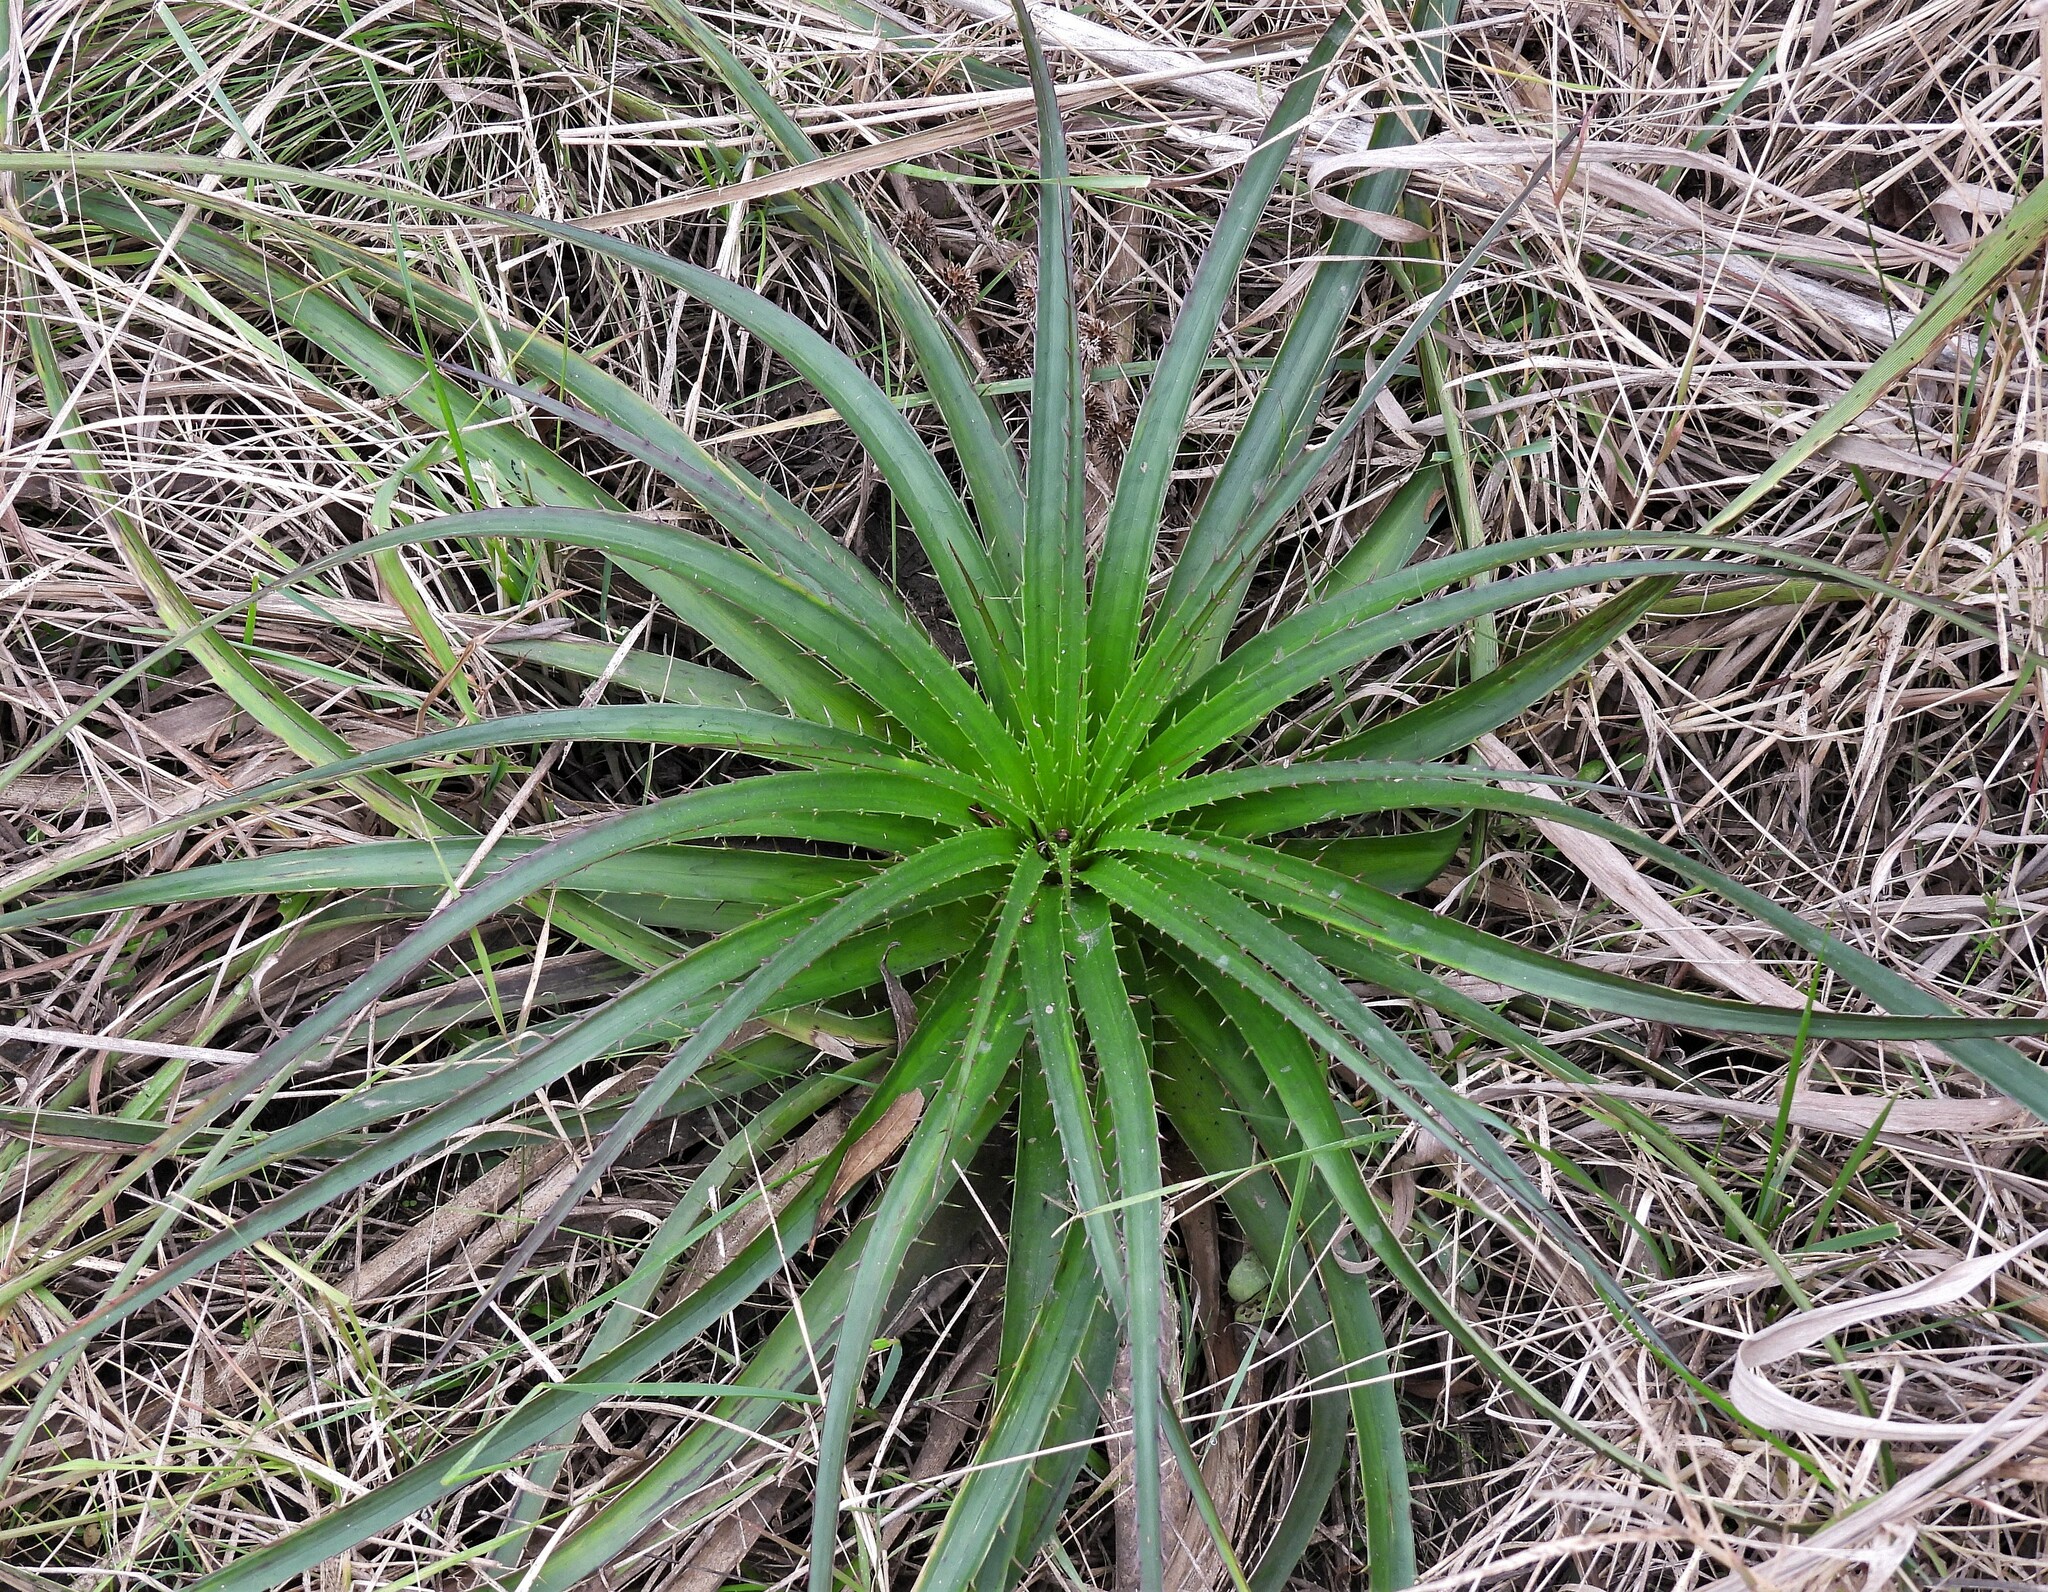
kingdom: Plantae
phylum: Tracheophyta
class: Magnoliopsida
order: Apiales
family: Apiaceae
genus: Eryngium
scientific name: Eryngium humboldtii
